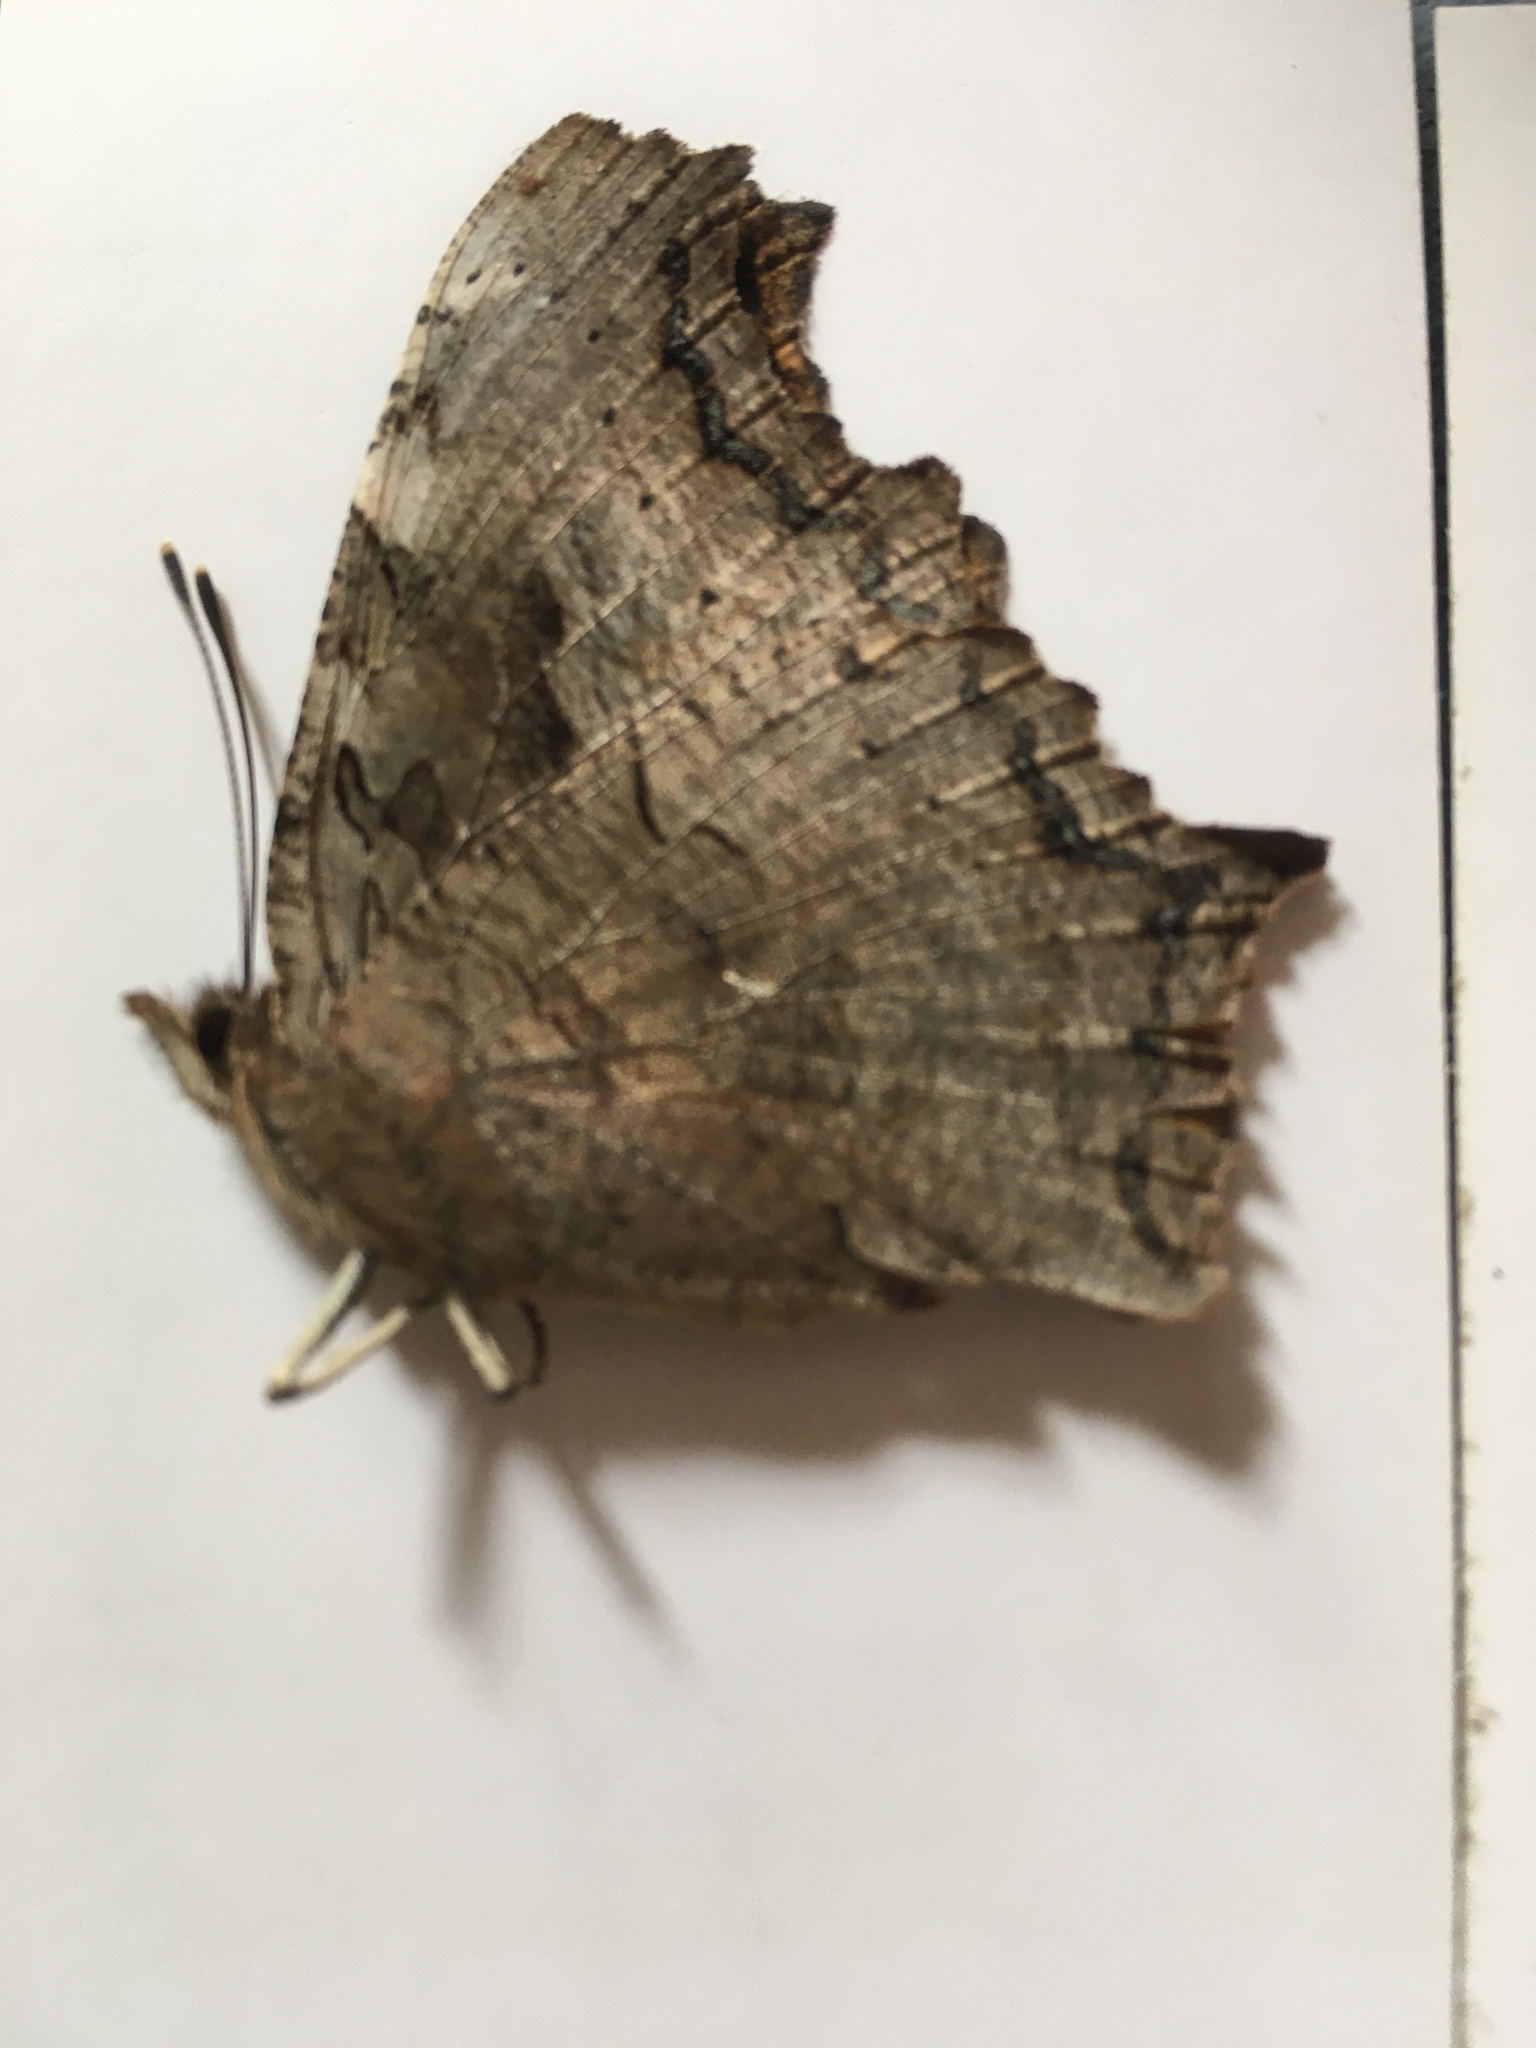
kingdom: Animalia
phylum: Arthropoda
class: Insecta
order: Lepidoptera
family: Nymphalidae
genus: Polygonia
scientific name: Polygonia vaualbum
